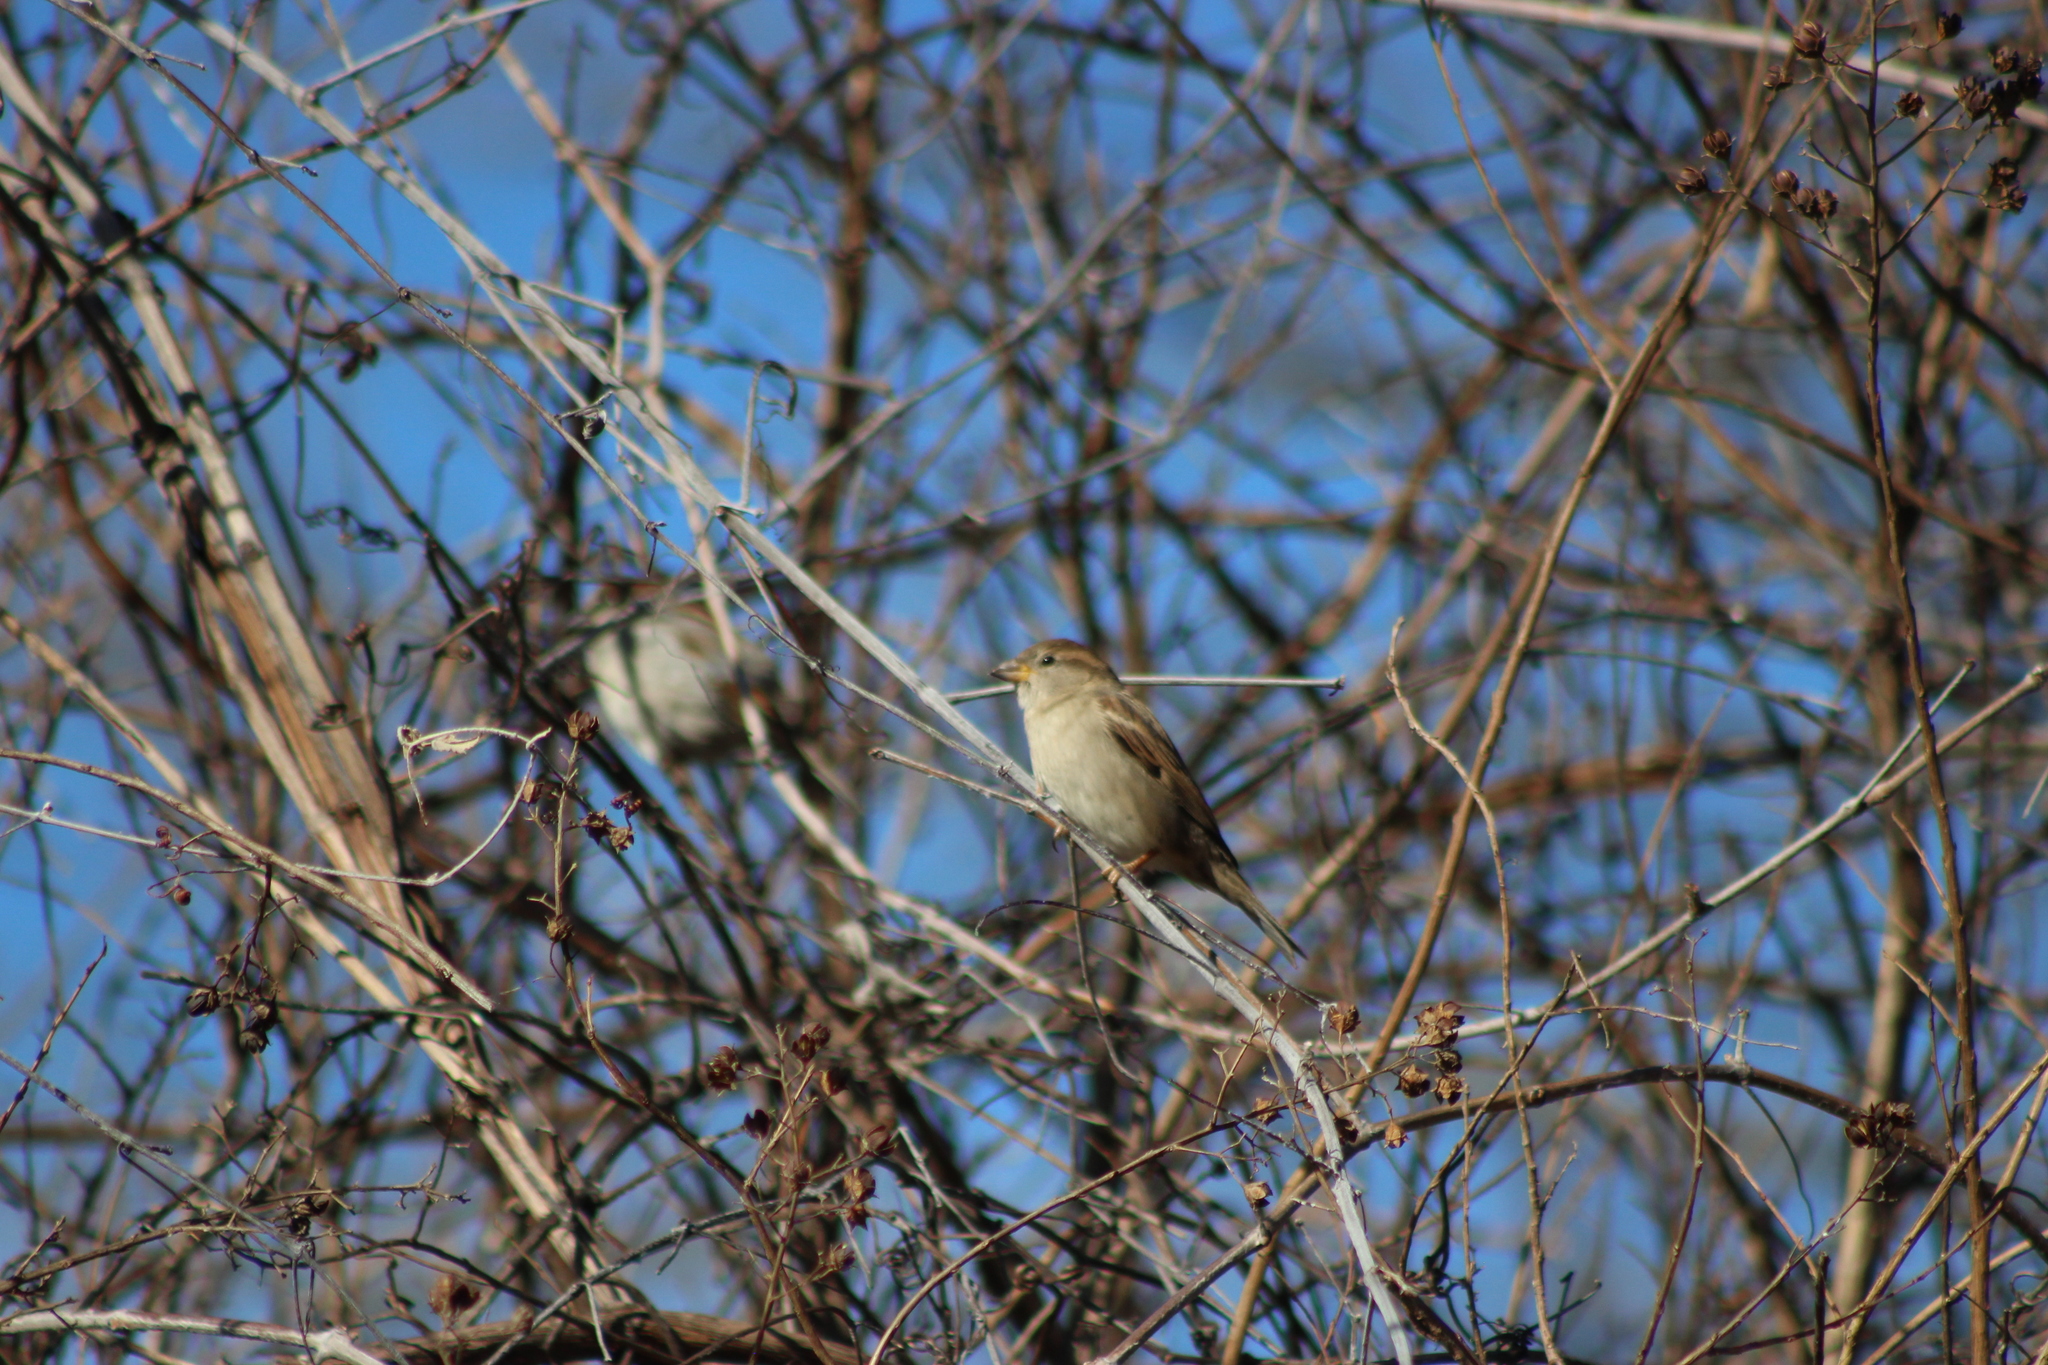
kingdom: Animalia
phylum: Chordata
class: Aves
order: Passeriformes
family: Passeridae
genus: Passer
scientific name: Passer domesticus
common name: House sparrow
